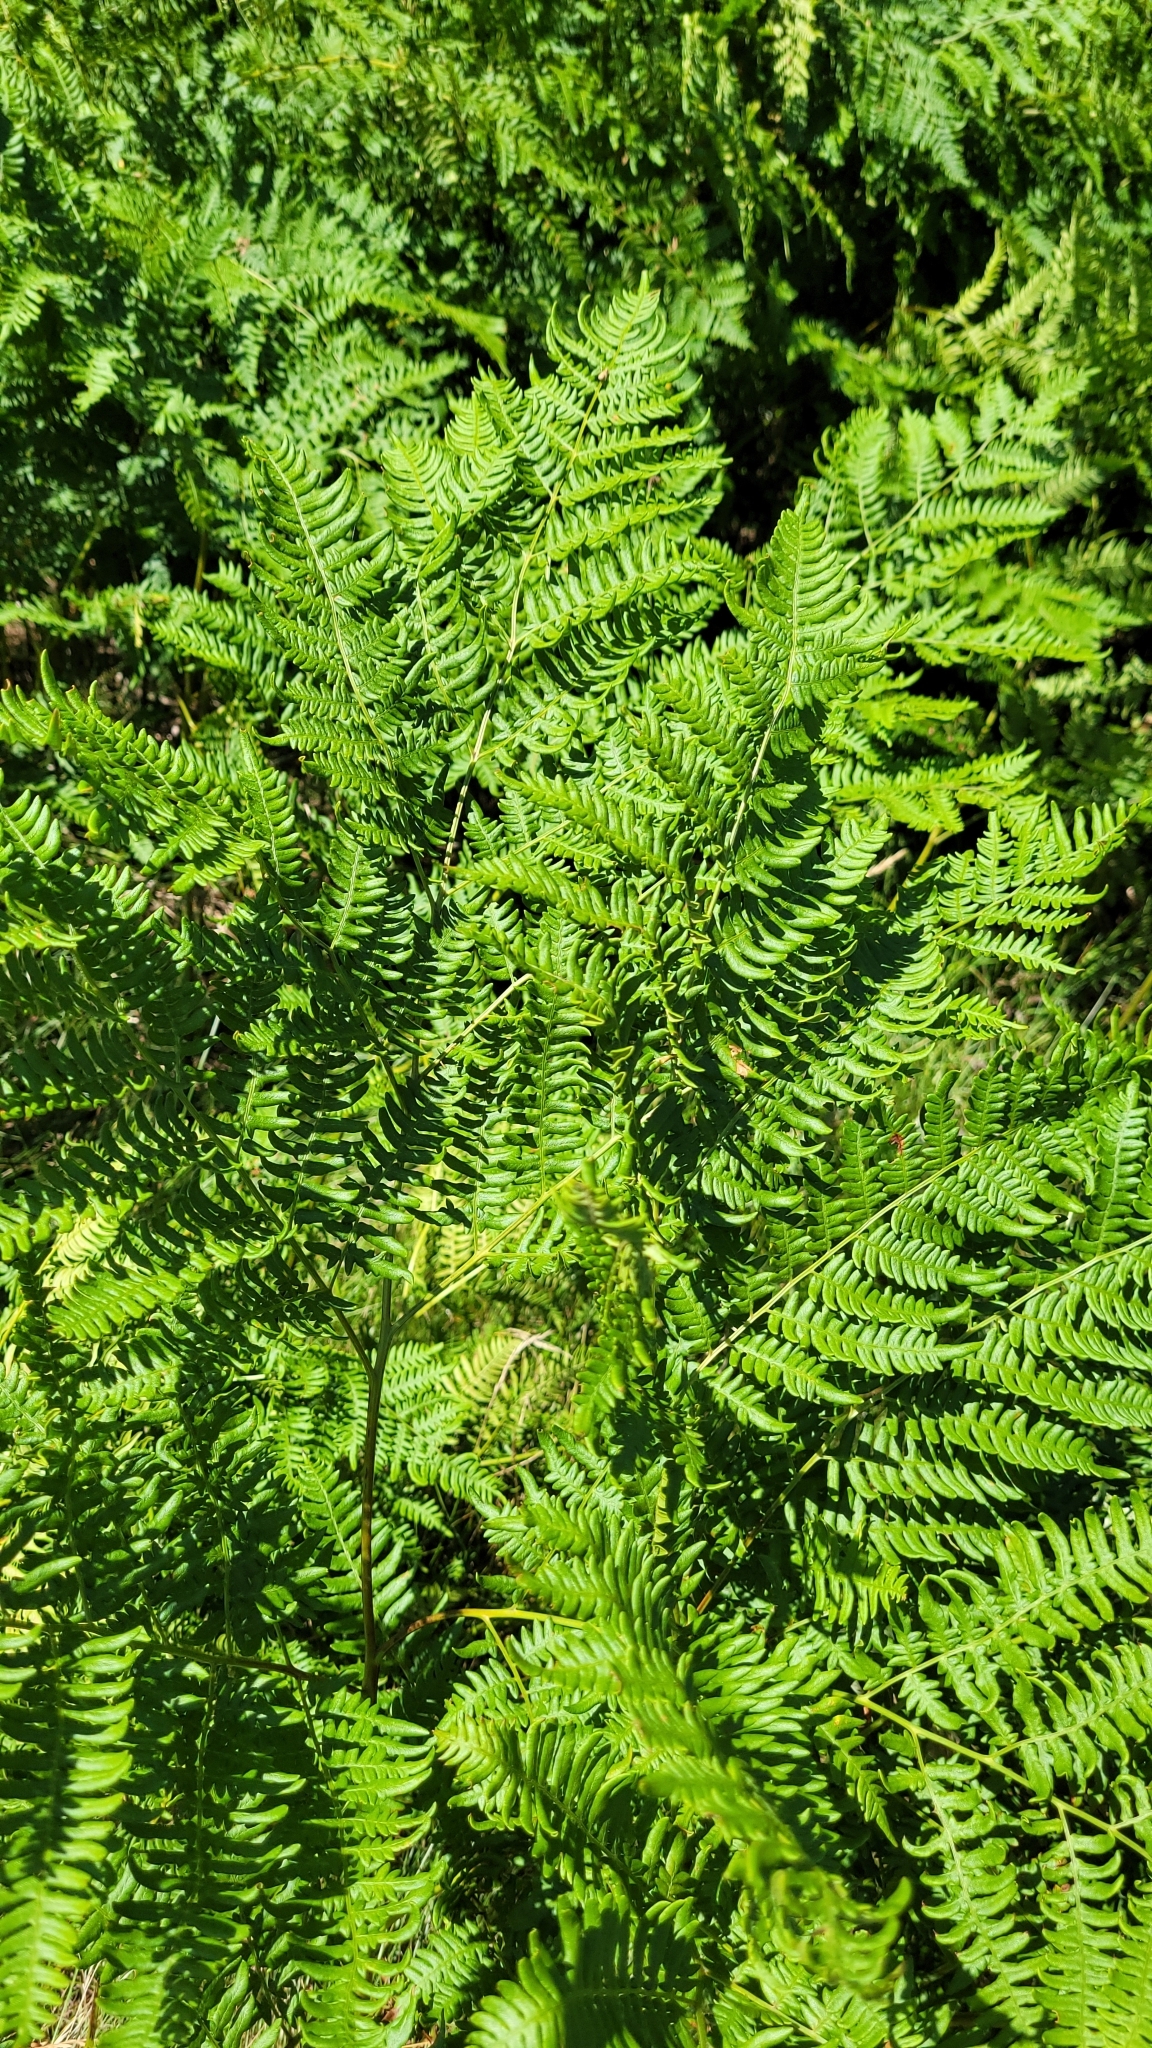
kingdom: Plantae
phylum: Tracheophyta
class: Polypodiopsida
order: Polypodiales
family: Dennstaedtiaceae
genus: Pteridium
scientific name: Pteridium aquilinum
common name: Bracken
